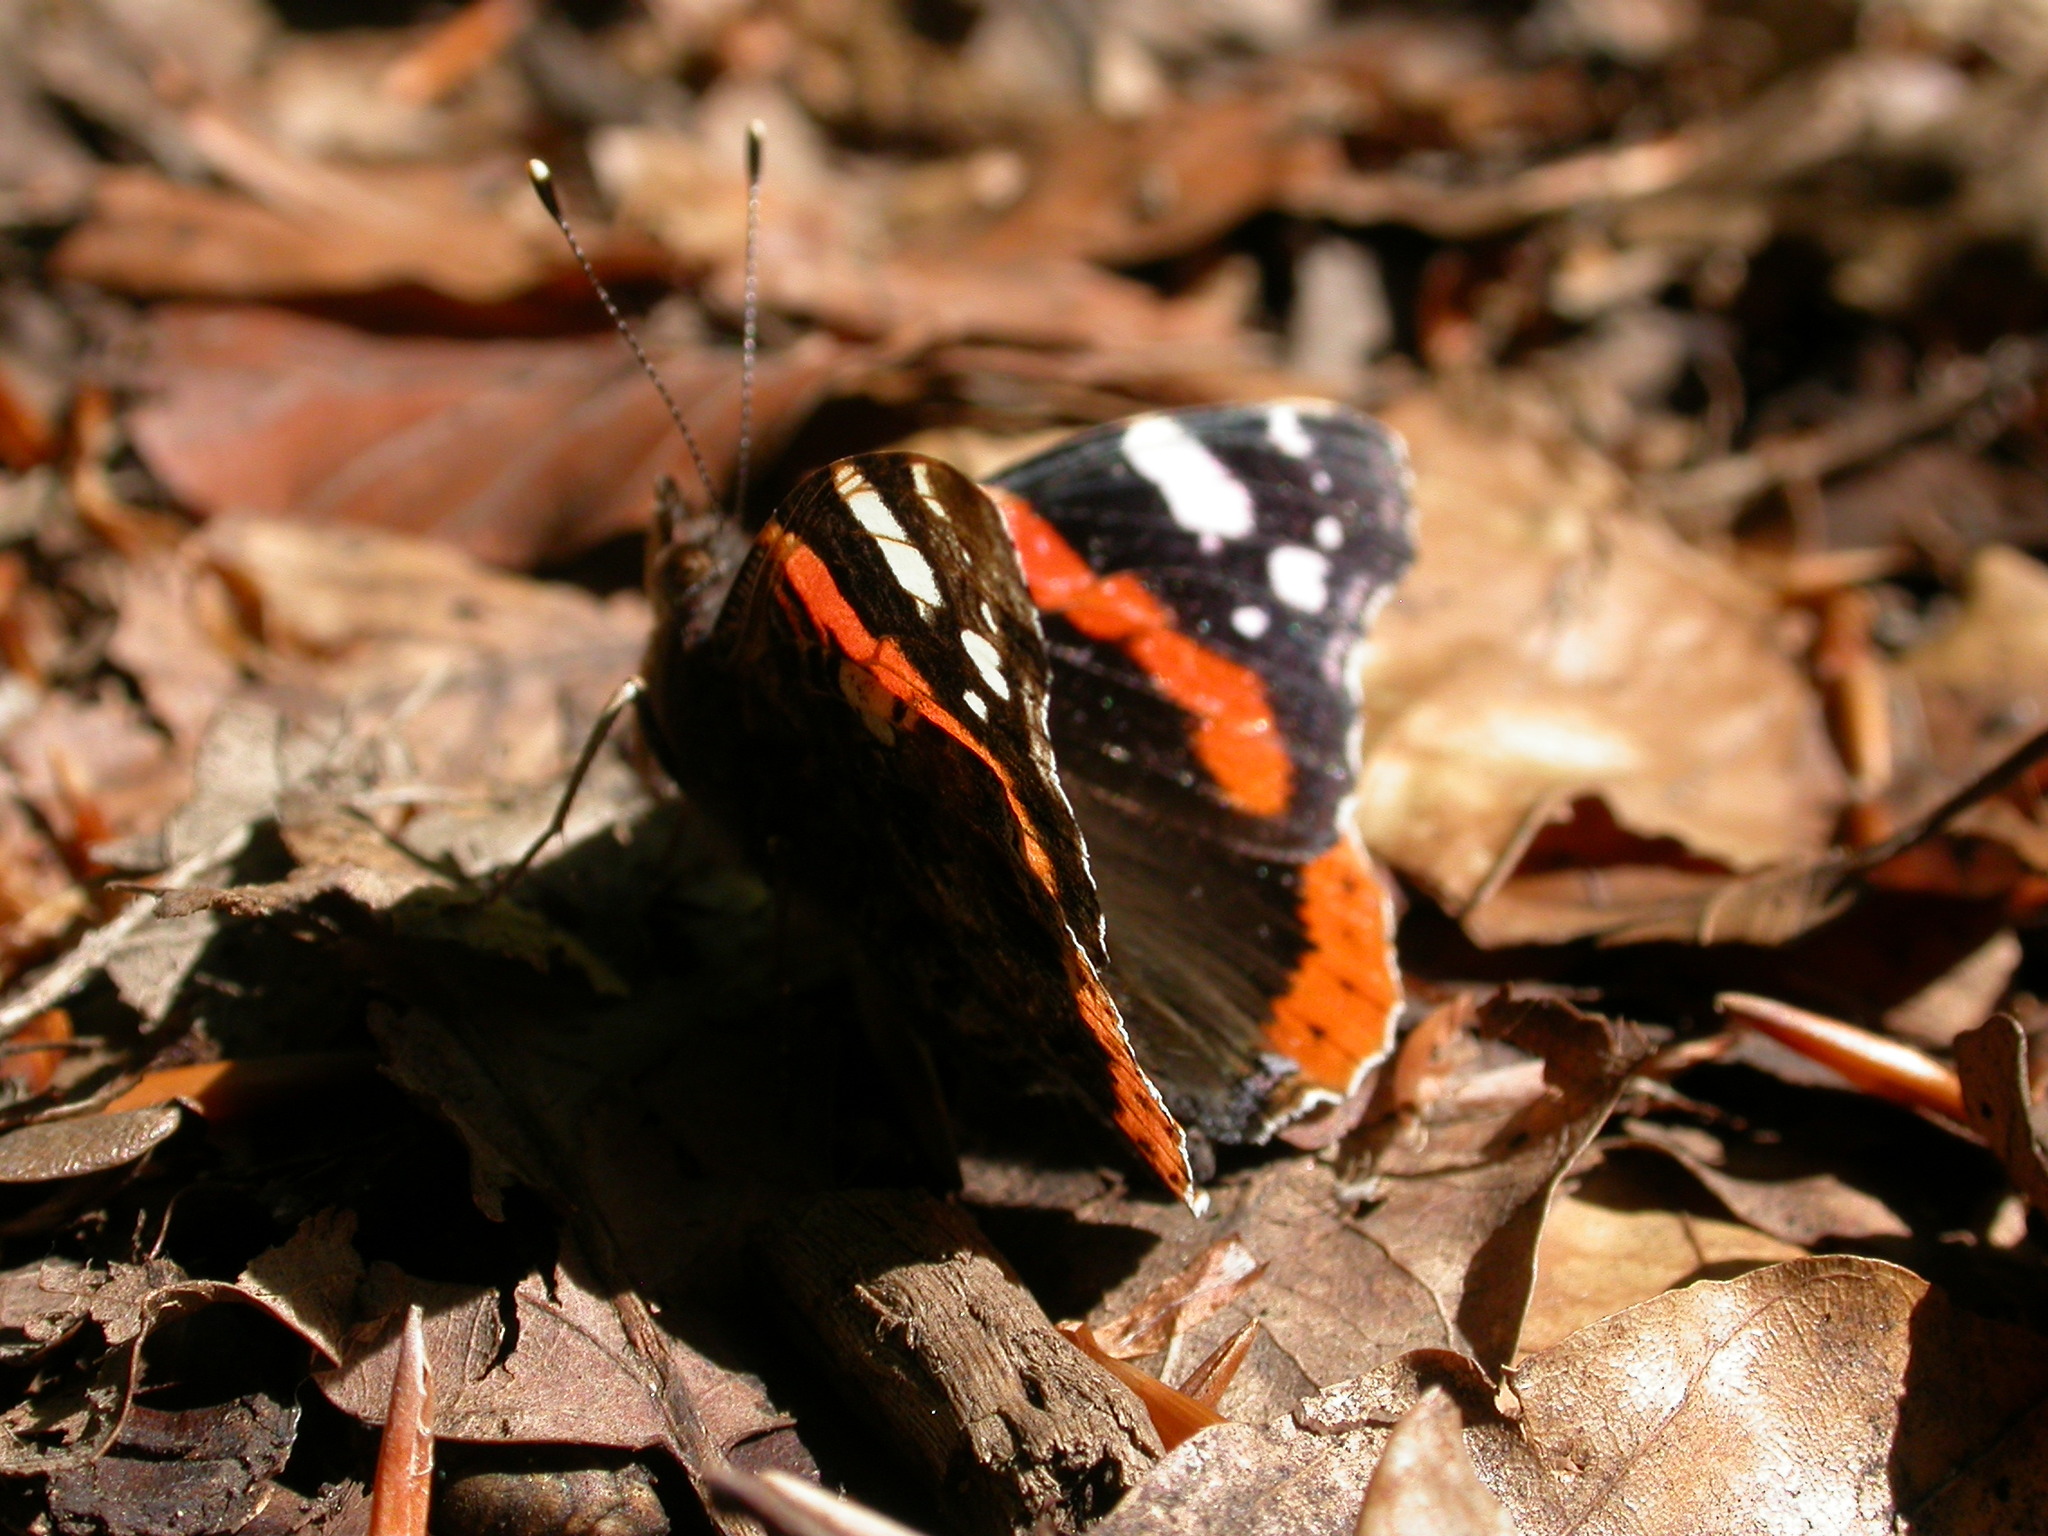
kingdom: Animalia
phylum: Arthropoda
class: Insecta
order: Lepidoptera
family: Nymphalidae
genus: Vanessa
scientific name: Vanessa atalanta
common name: Red admiral
